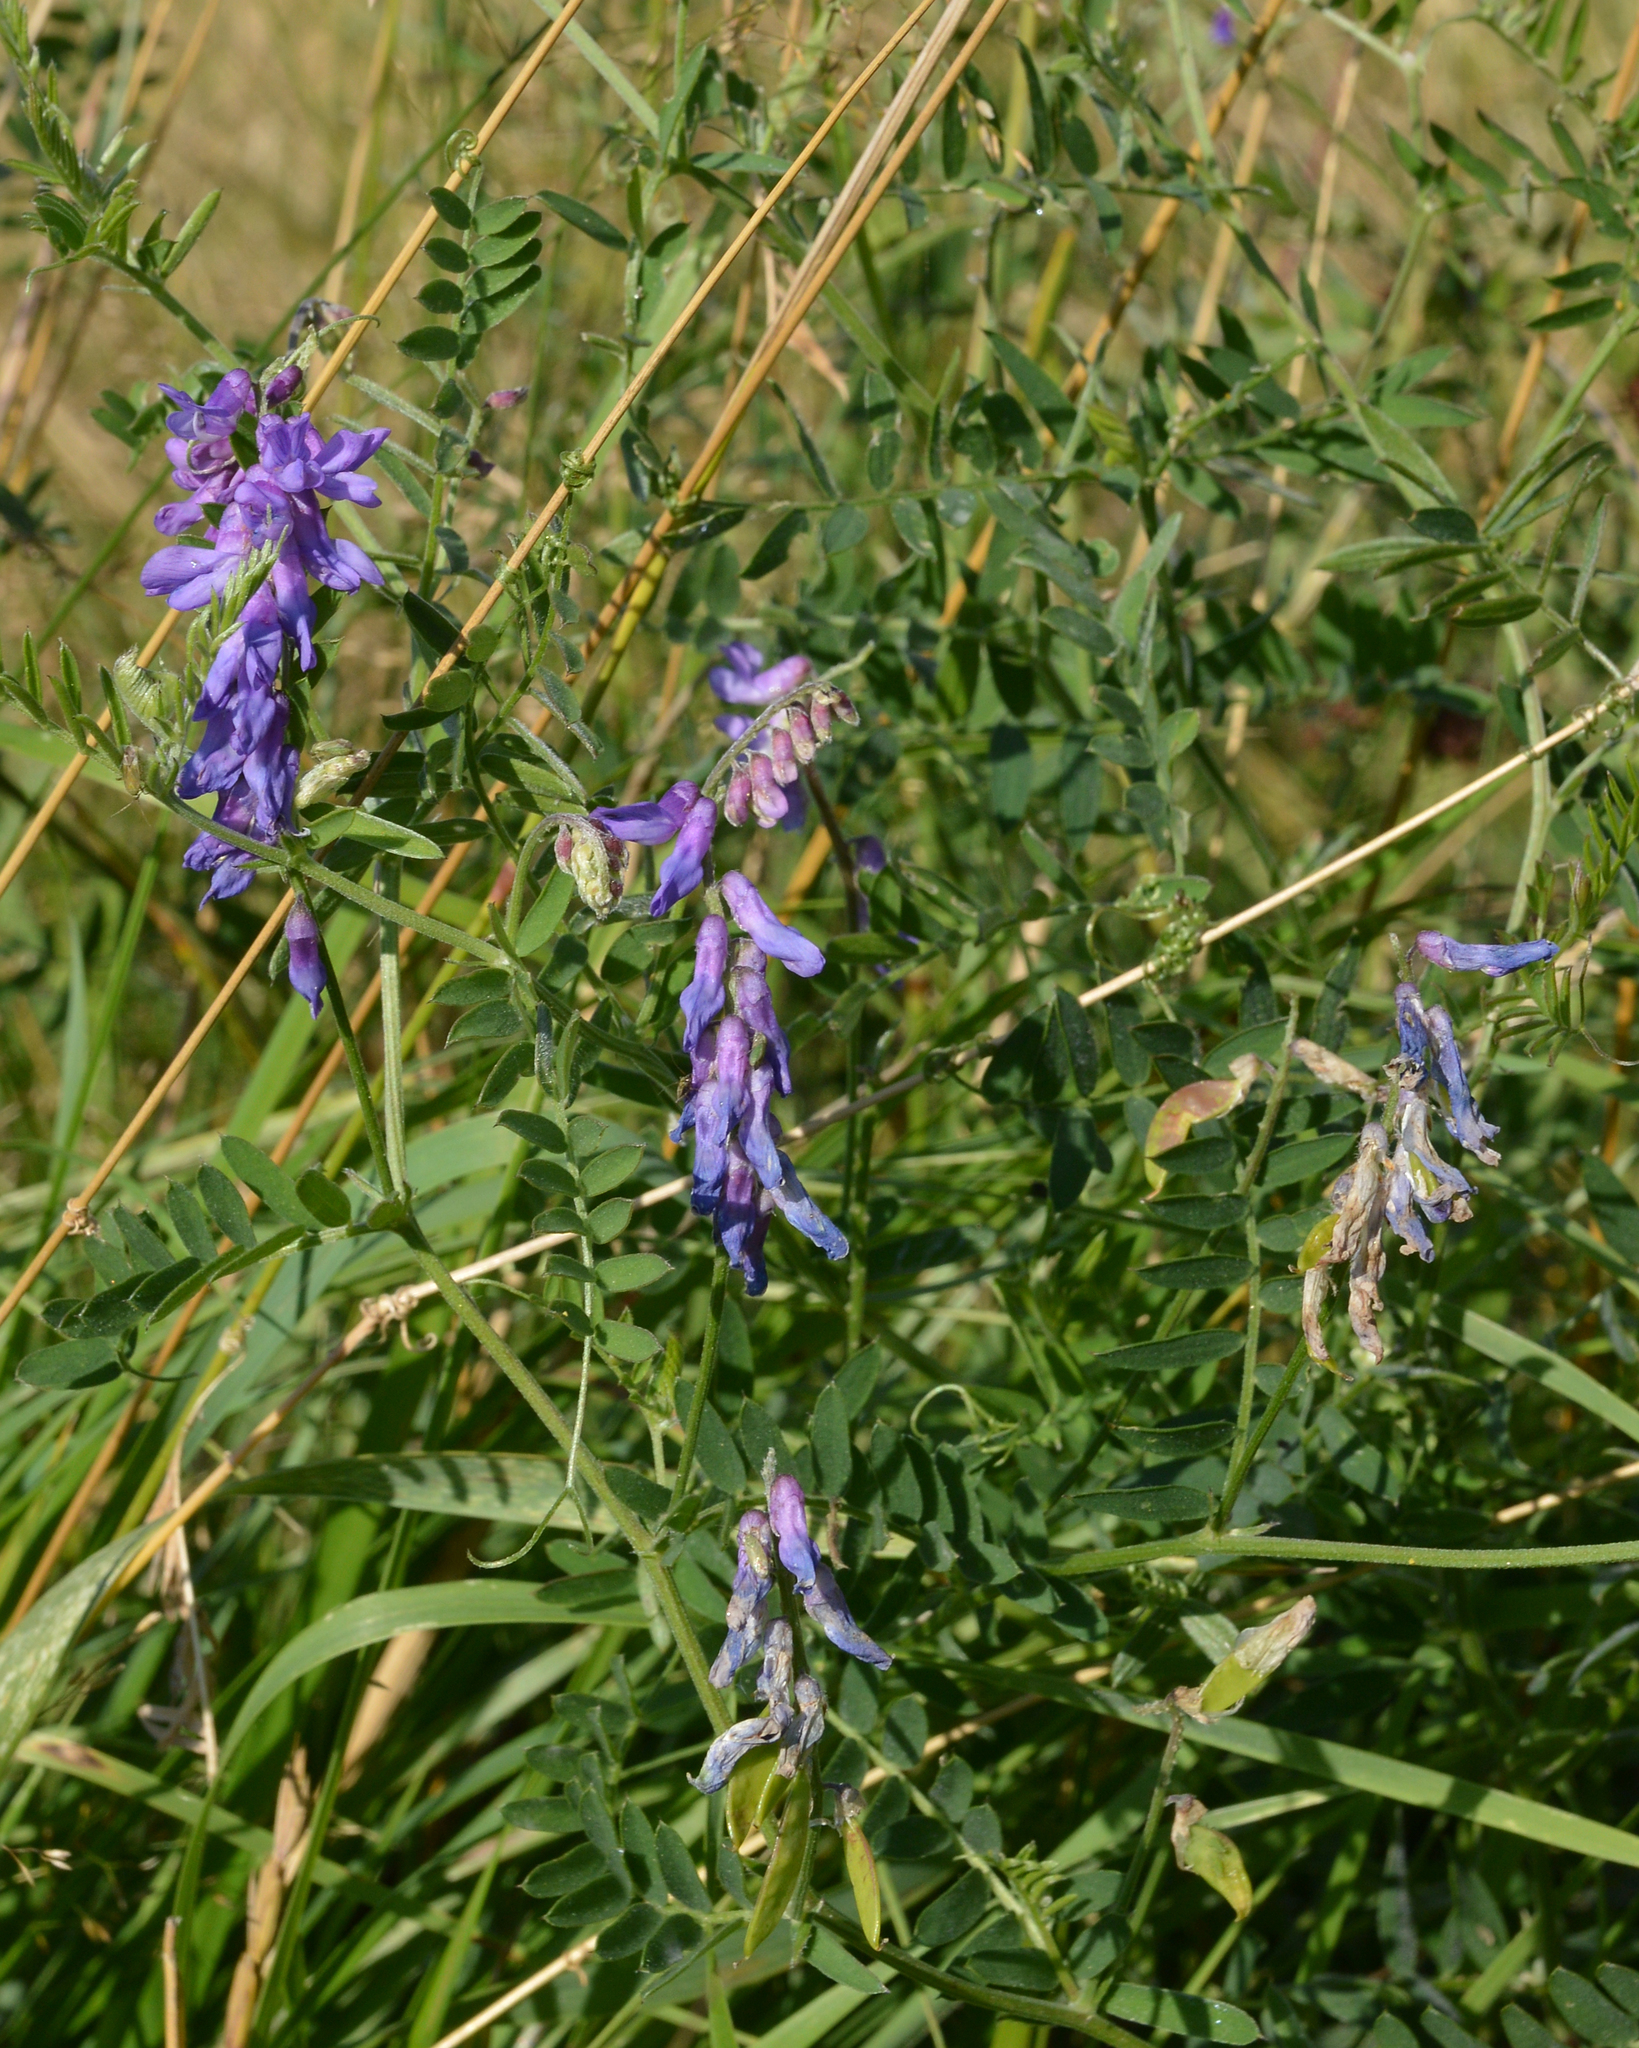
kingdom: Plantae
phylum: Tracheophyta
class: Magnoliopsida
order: Fabales
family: Fabaceae
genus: Vicia
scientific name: Vicia cracca
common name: Bird vetch
